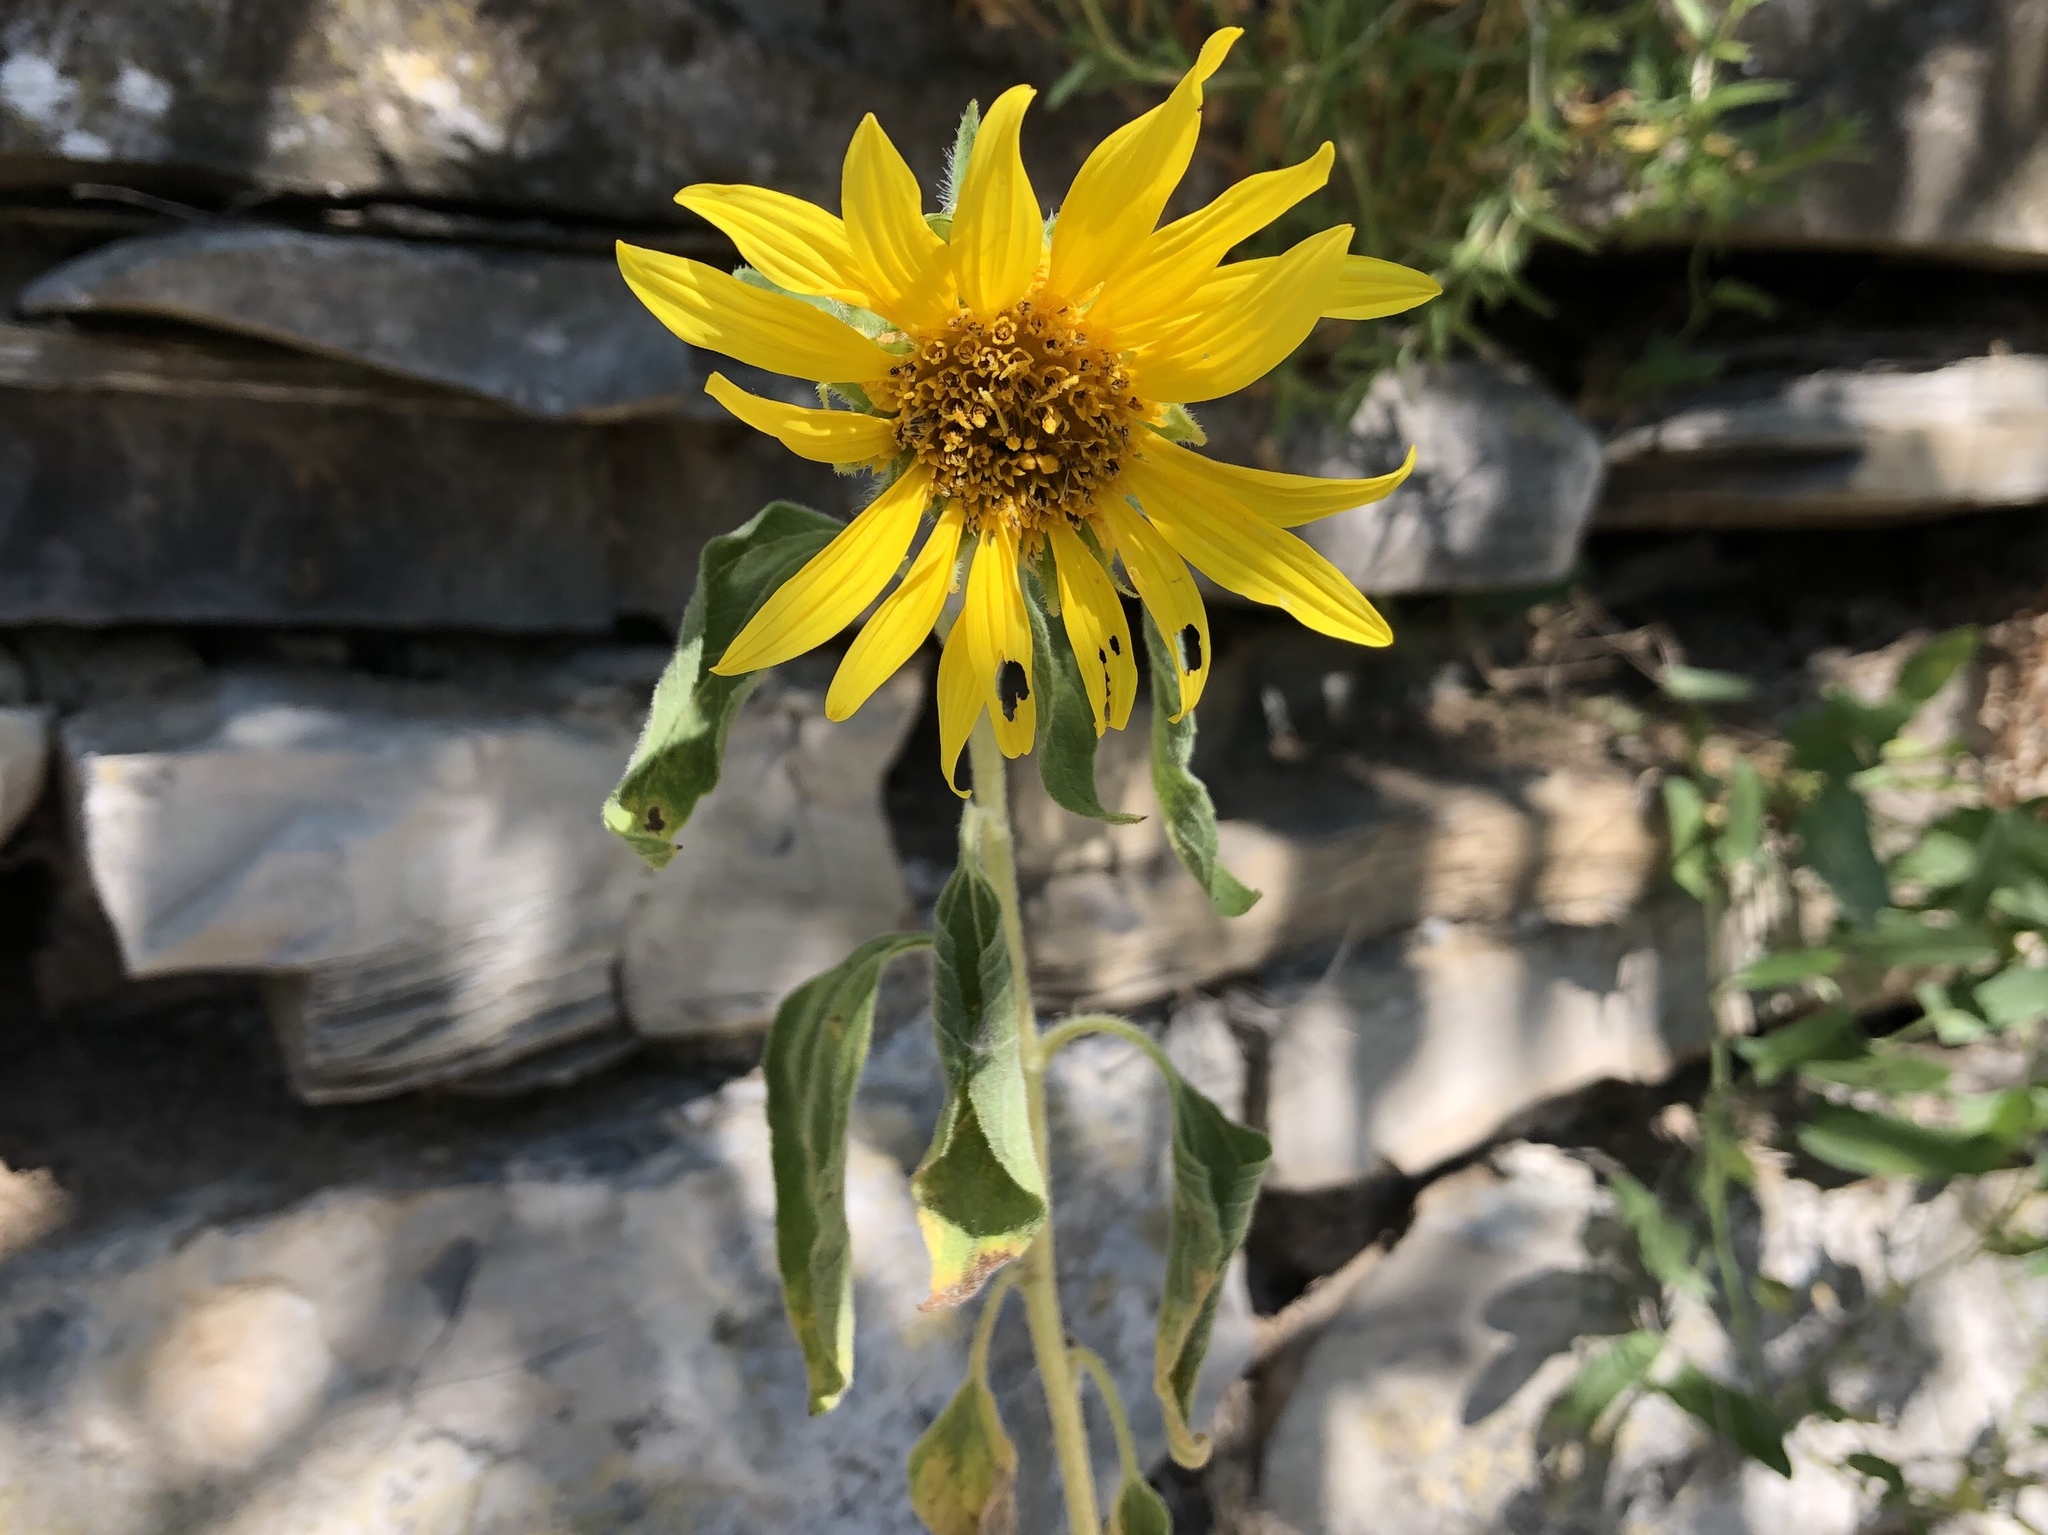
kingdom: Plantae
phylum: Tracheophyta
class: Magnoliopsida
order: Asterales
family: Asteraceae
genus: Helianthus
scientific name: Helianthus annuus
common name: Sunflower
